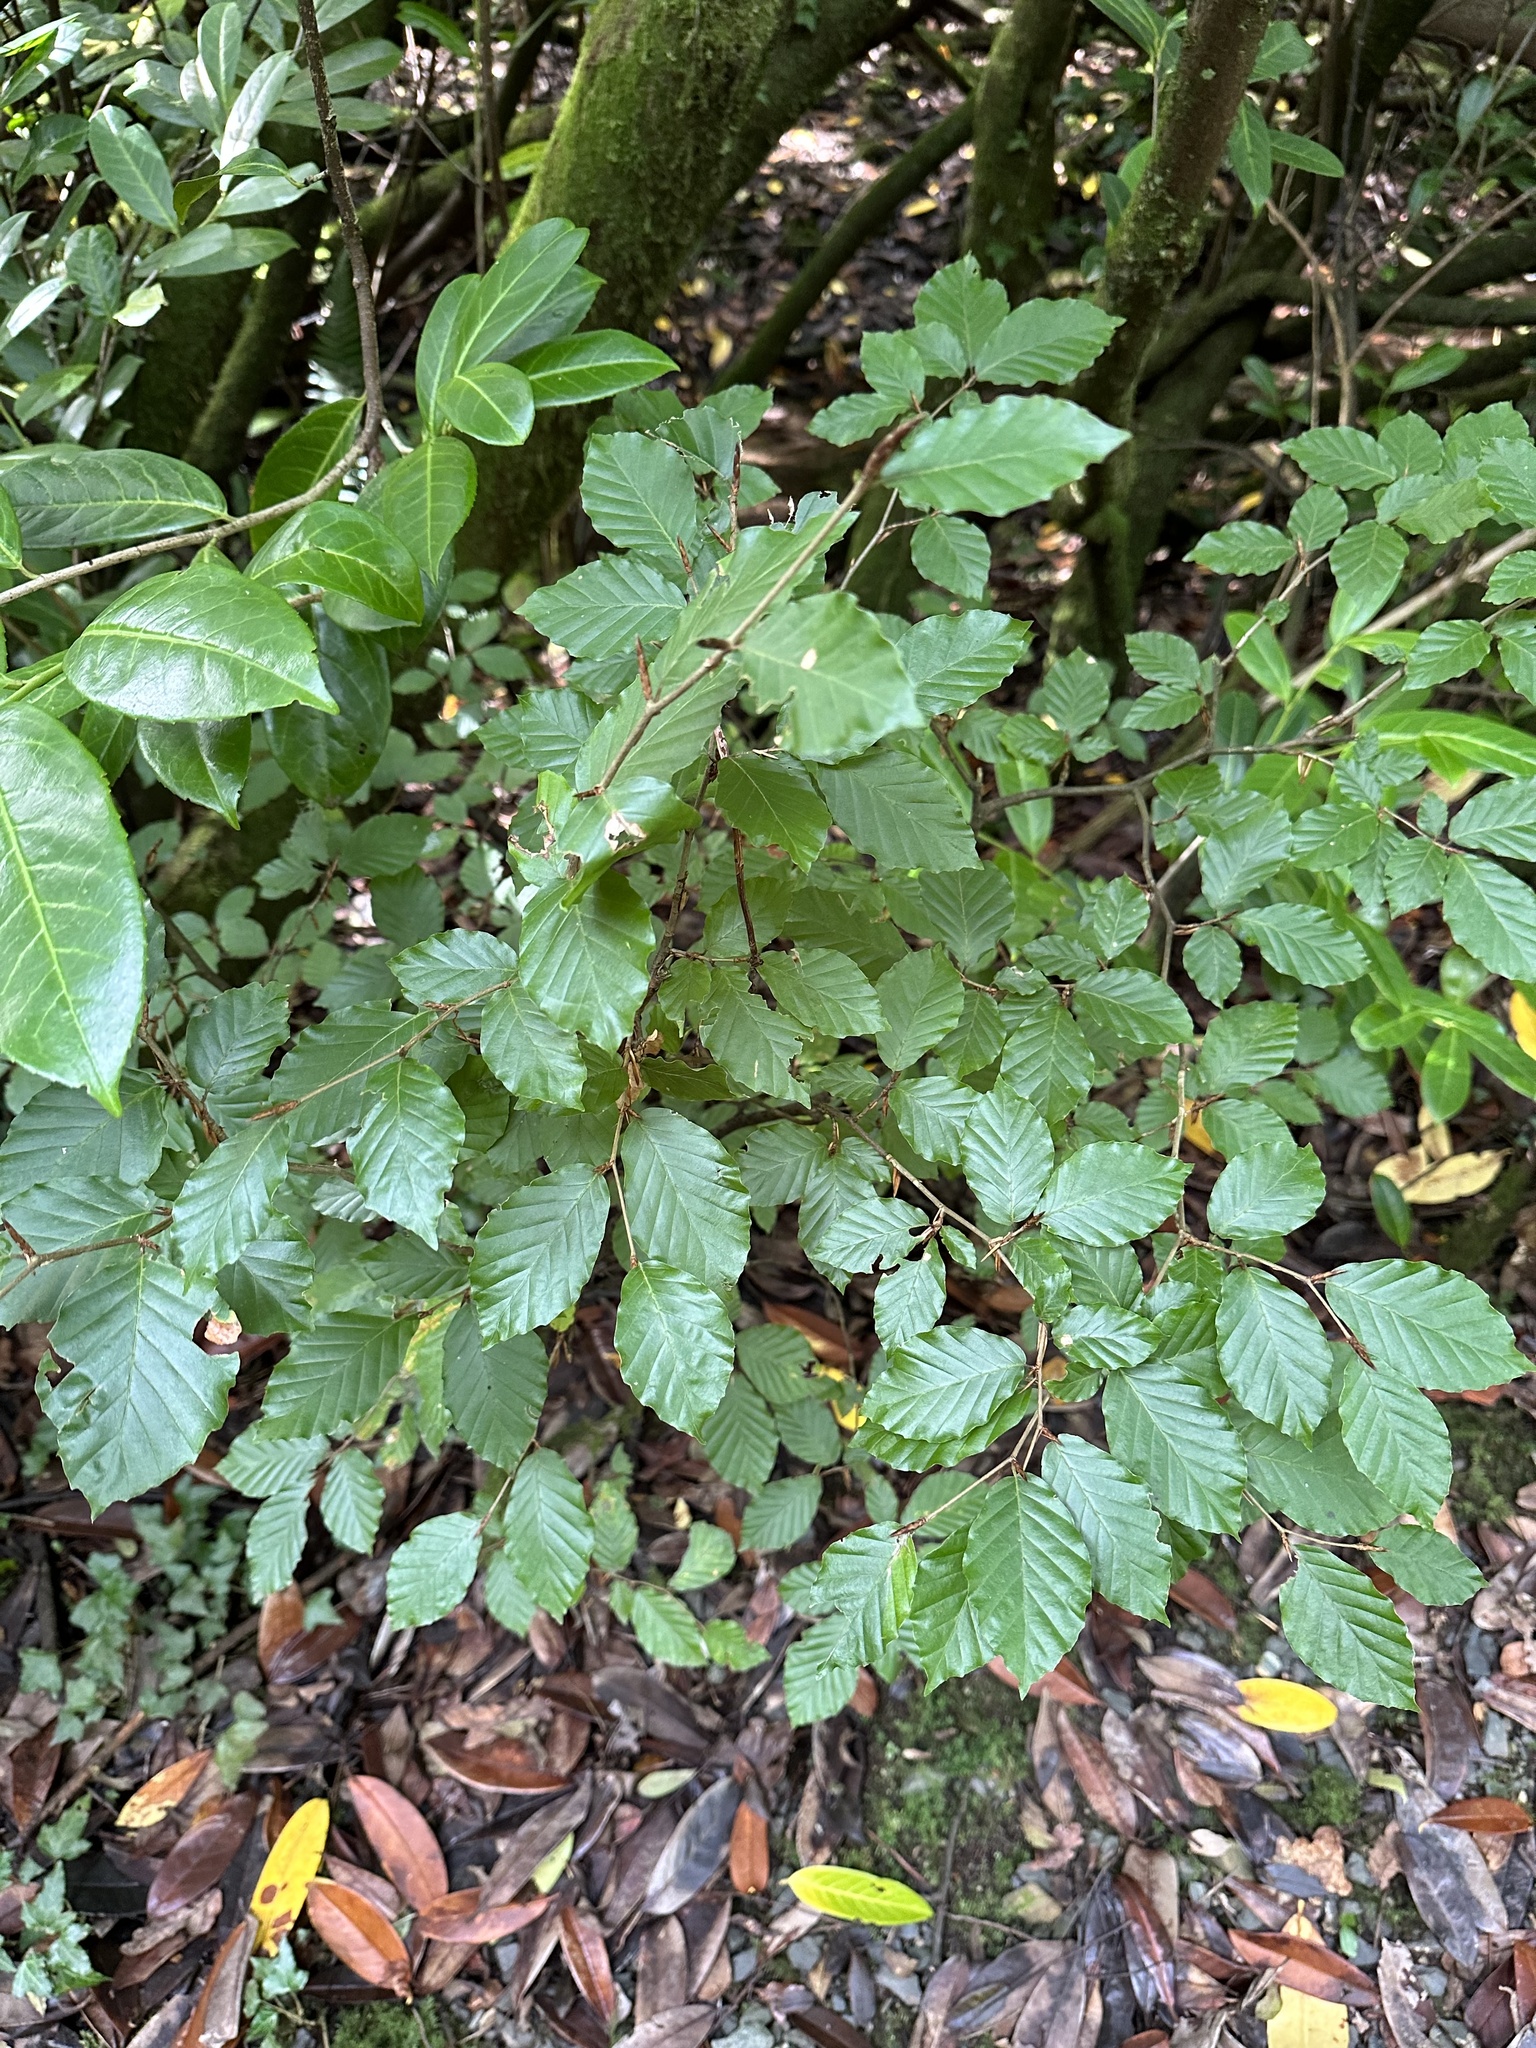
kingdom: Plantae
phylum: Tracheophyta
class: Magnoliopsida
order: Fagales
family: Fagaceae
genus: Fagus
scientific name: Fagus sylvatica
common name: Beech
